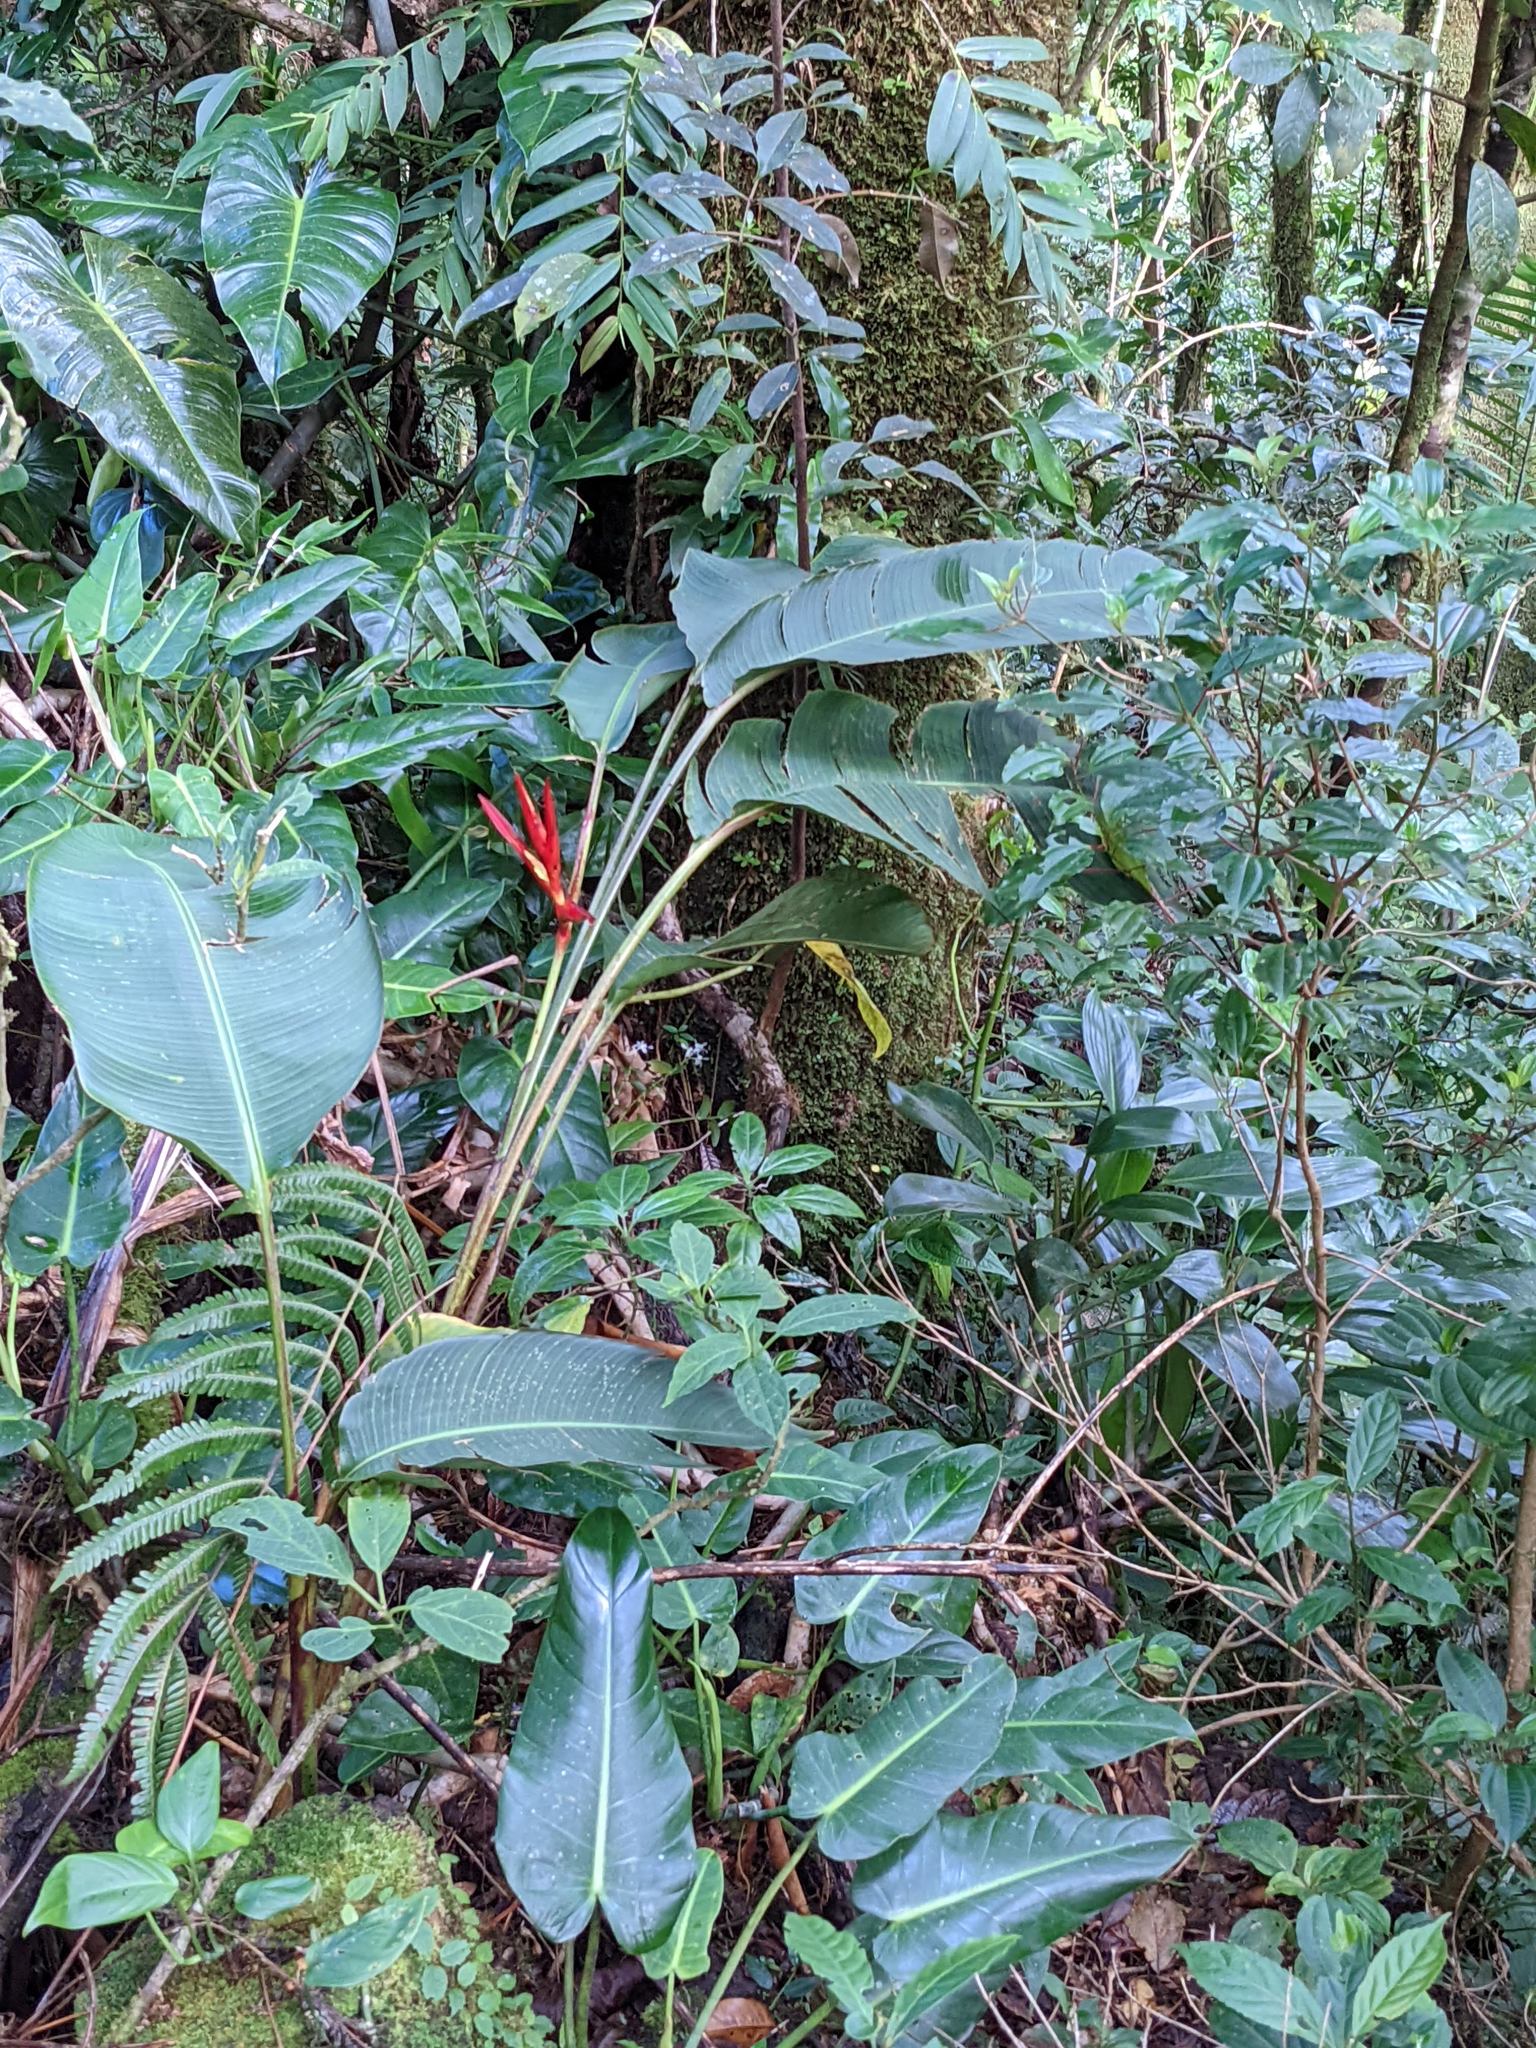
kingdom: Plantae
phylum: Tracheophyta
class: Liliopsida
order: Zingiberales
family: Heliconiaceae
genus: Heliconia
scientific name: Heliconia monteverdensis
